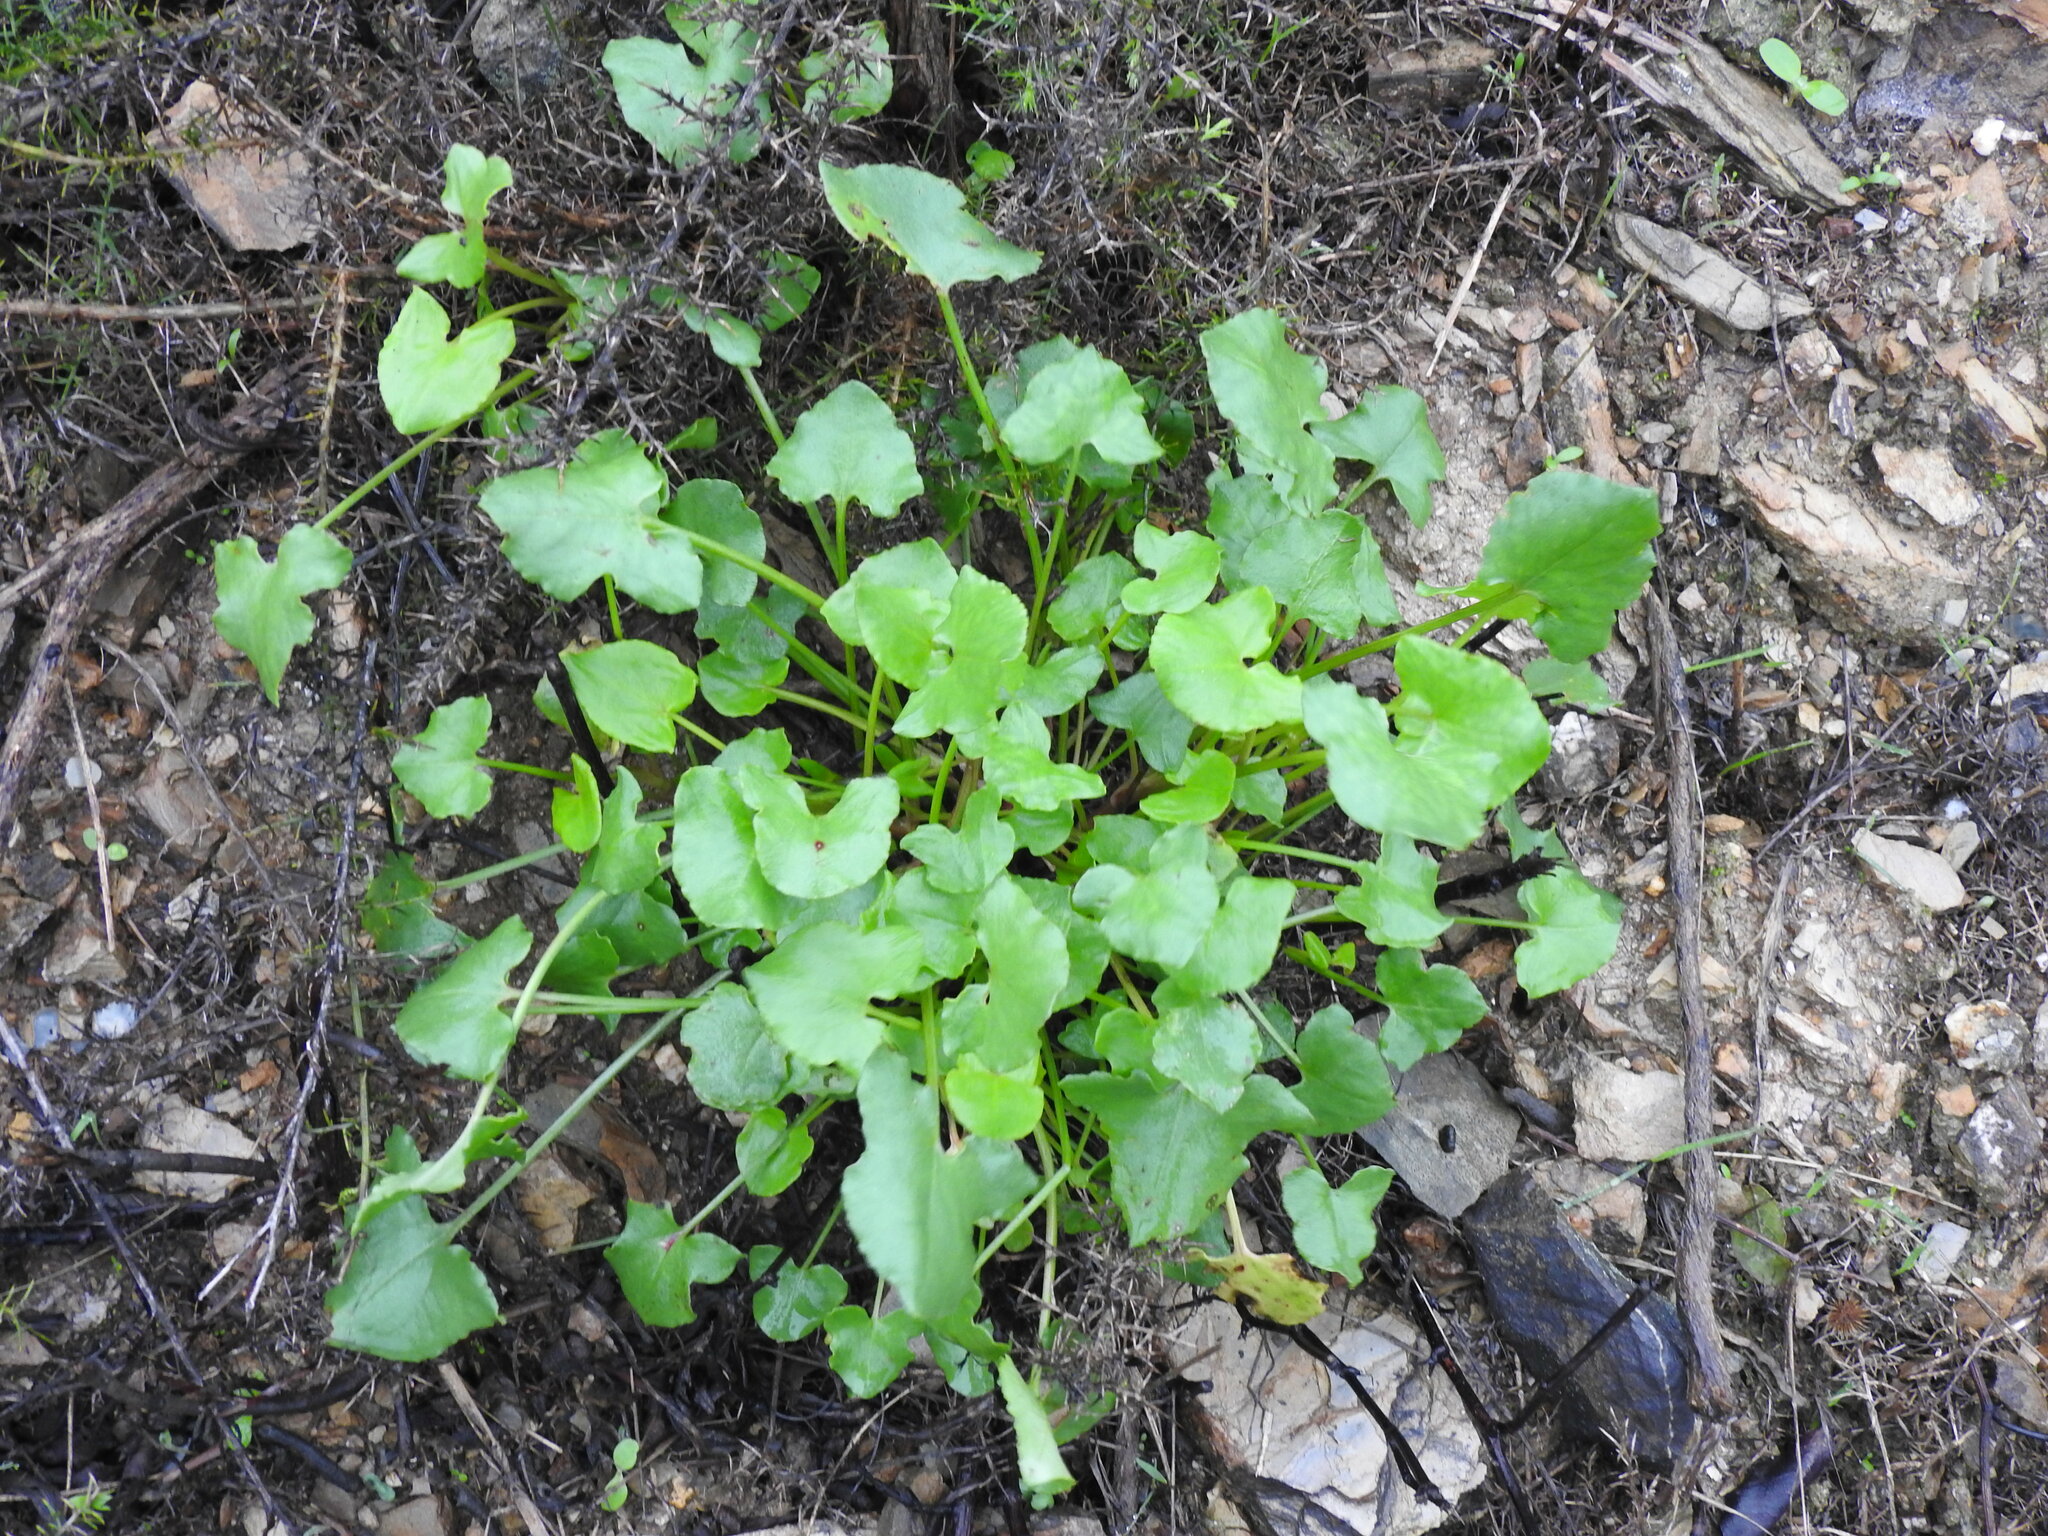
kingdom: Plantae
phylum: Tracheophyta
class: Magnoliopsida
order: Caryophyllales
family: Polygonaceae
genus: Rumex
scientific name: Rumex induratus
